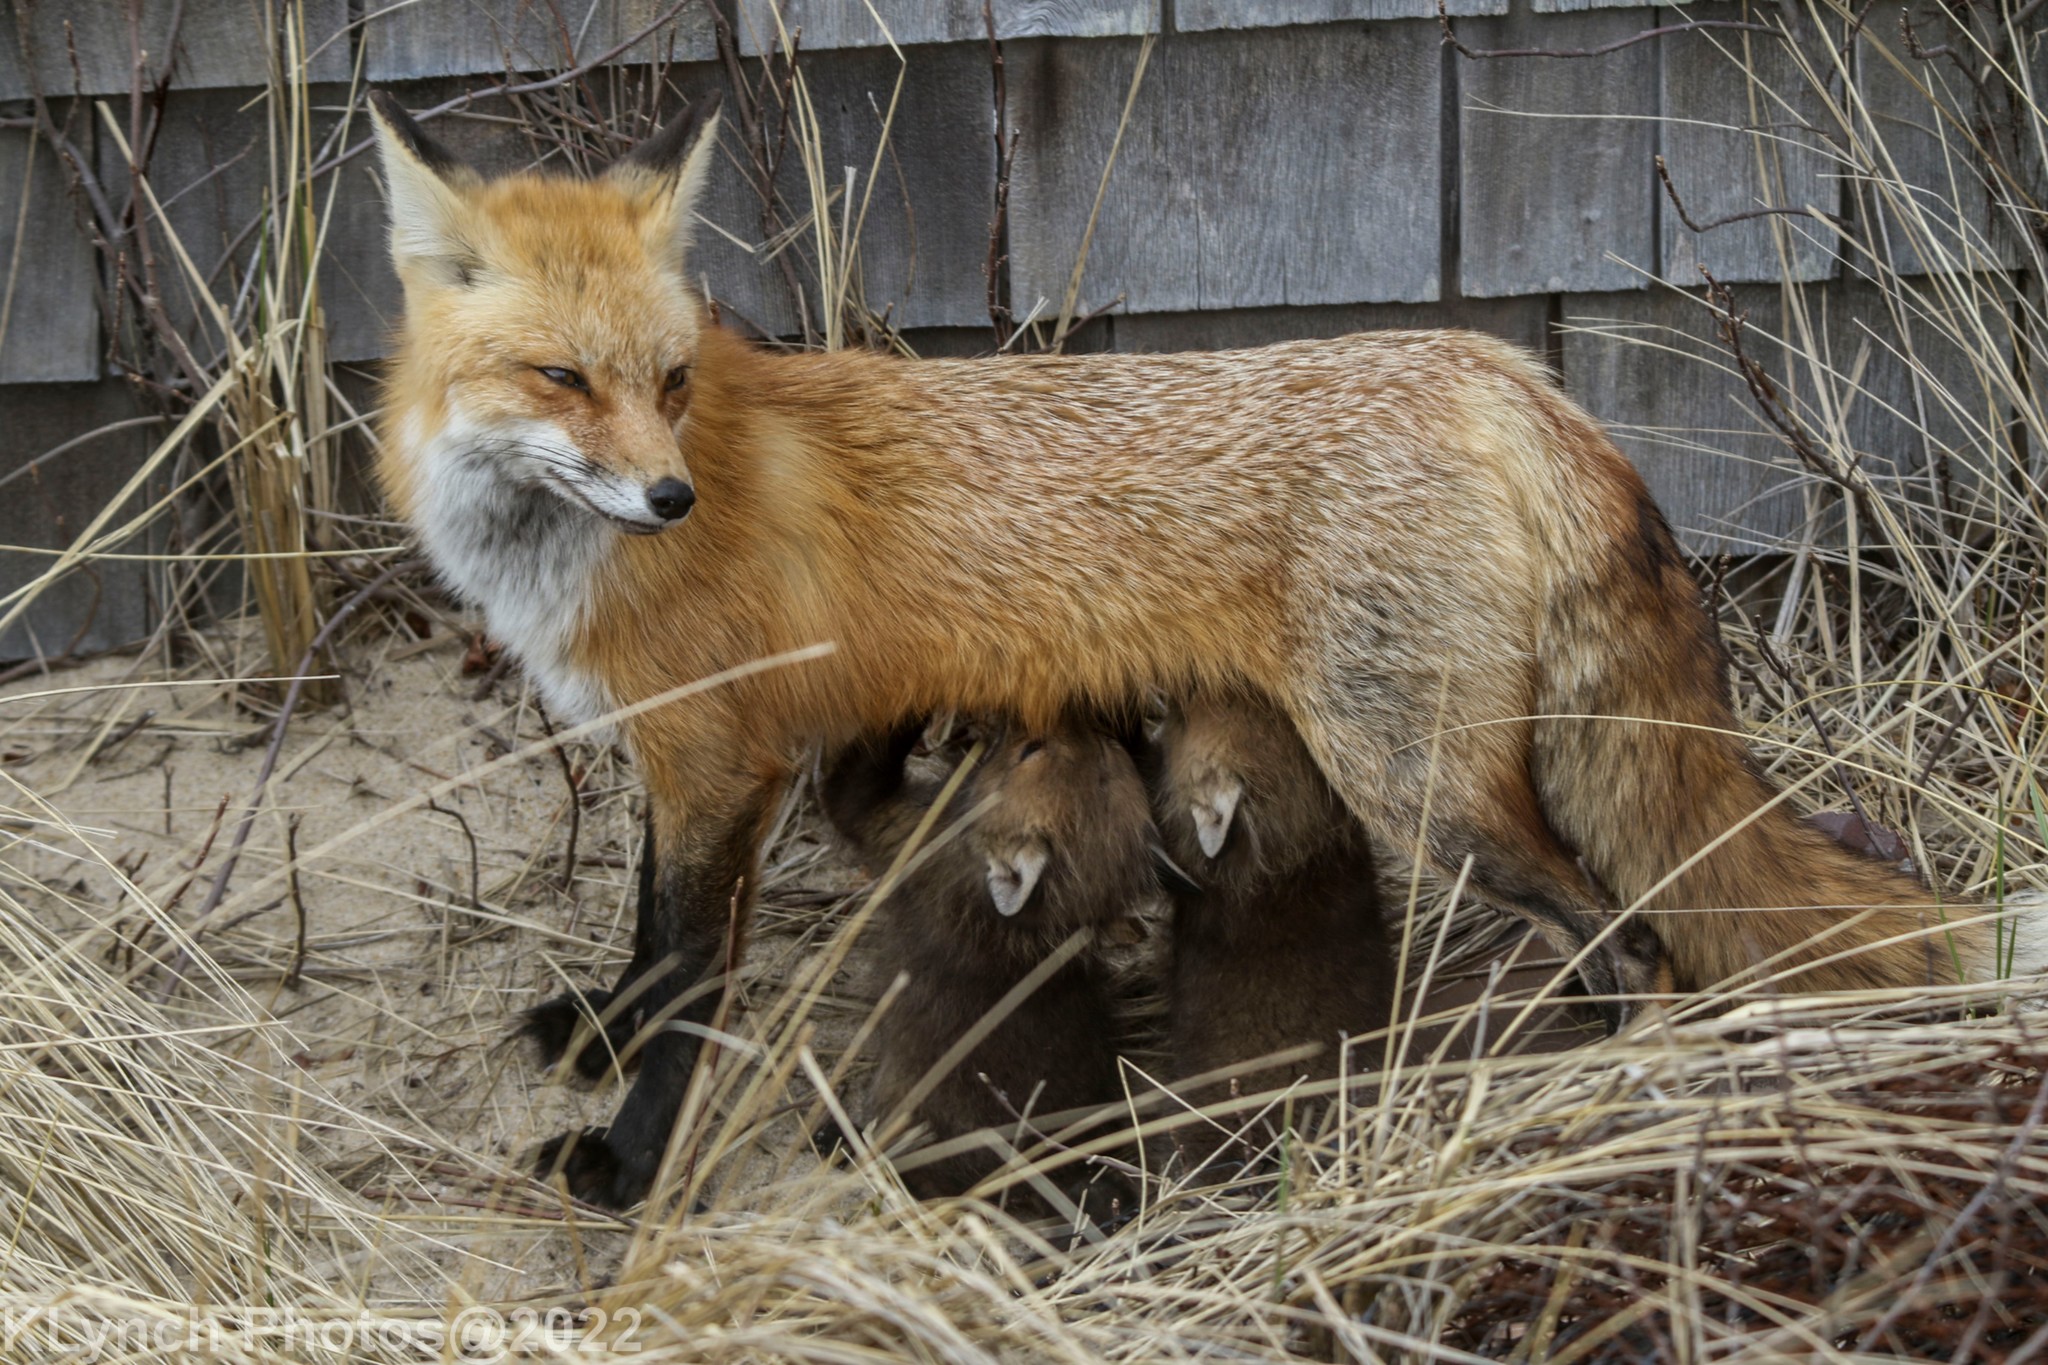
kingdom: Animalia
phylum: Chordata
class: Mammalia
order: Carnivora
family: Canidae
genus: Vulpes
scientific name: Vulpes vulpes
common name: Red fox
